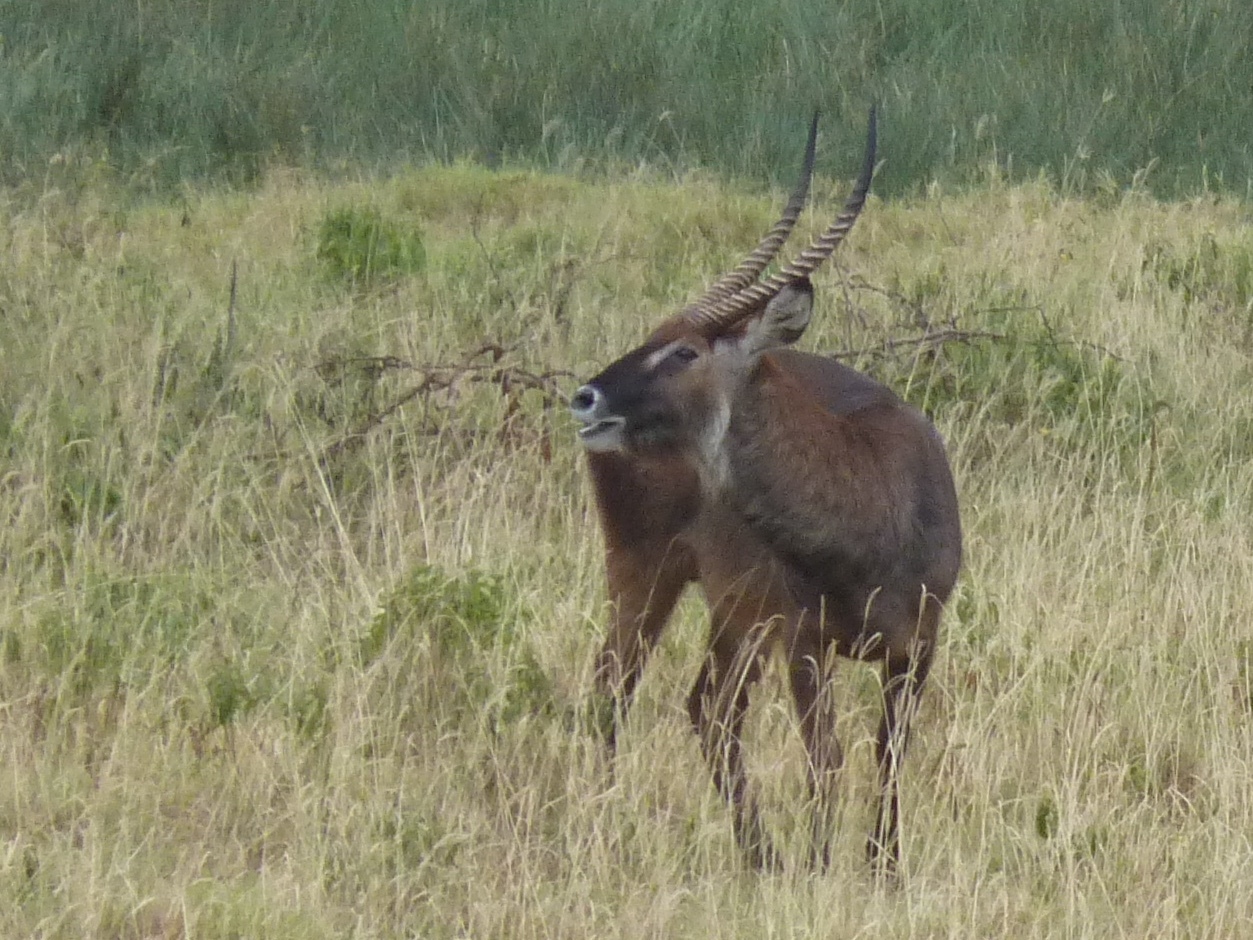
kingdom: Animalia
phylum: Chordata
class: Mammalia
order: Artiodactyla
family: Bovidae
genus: Kobus
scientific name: Kobus ellipsiprymnus
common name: Waterbuck
